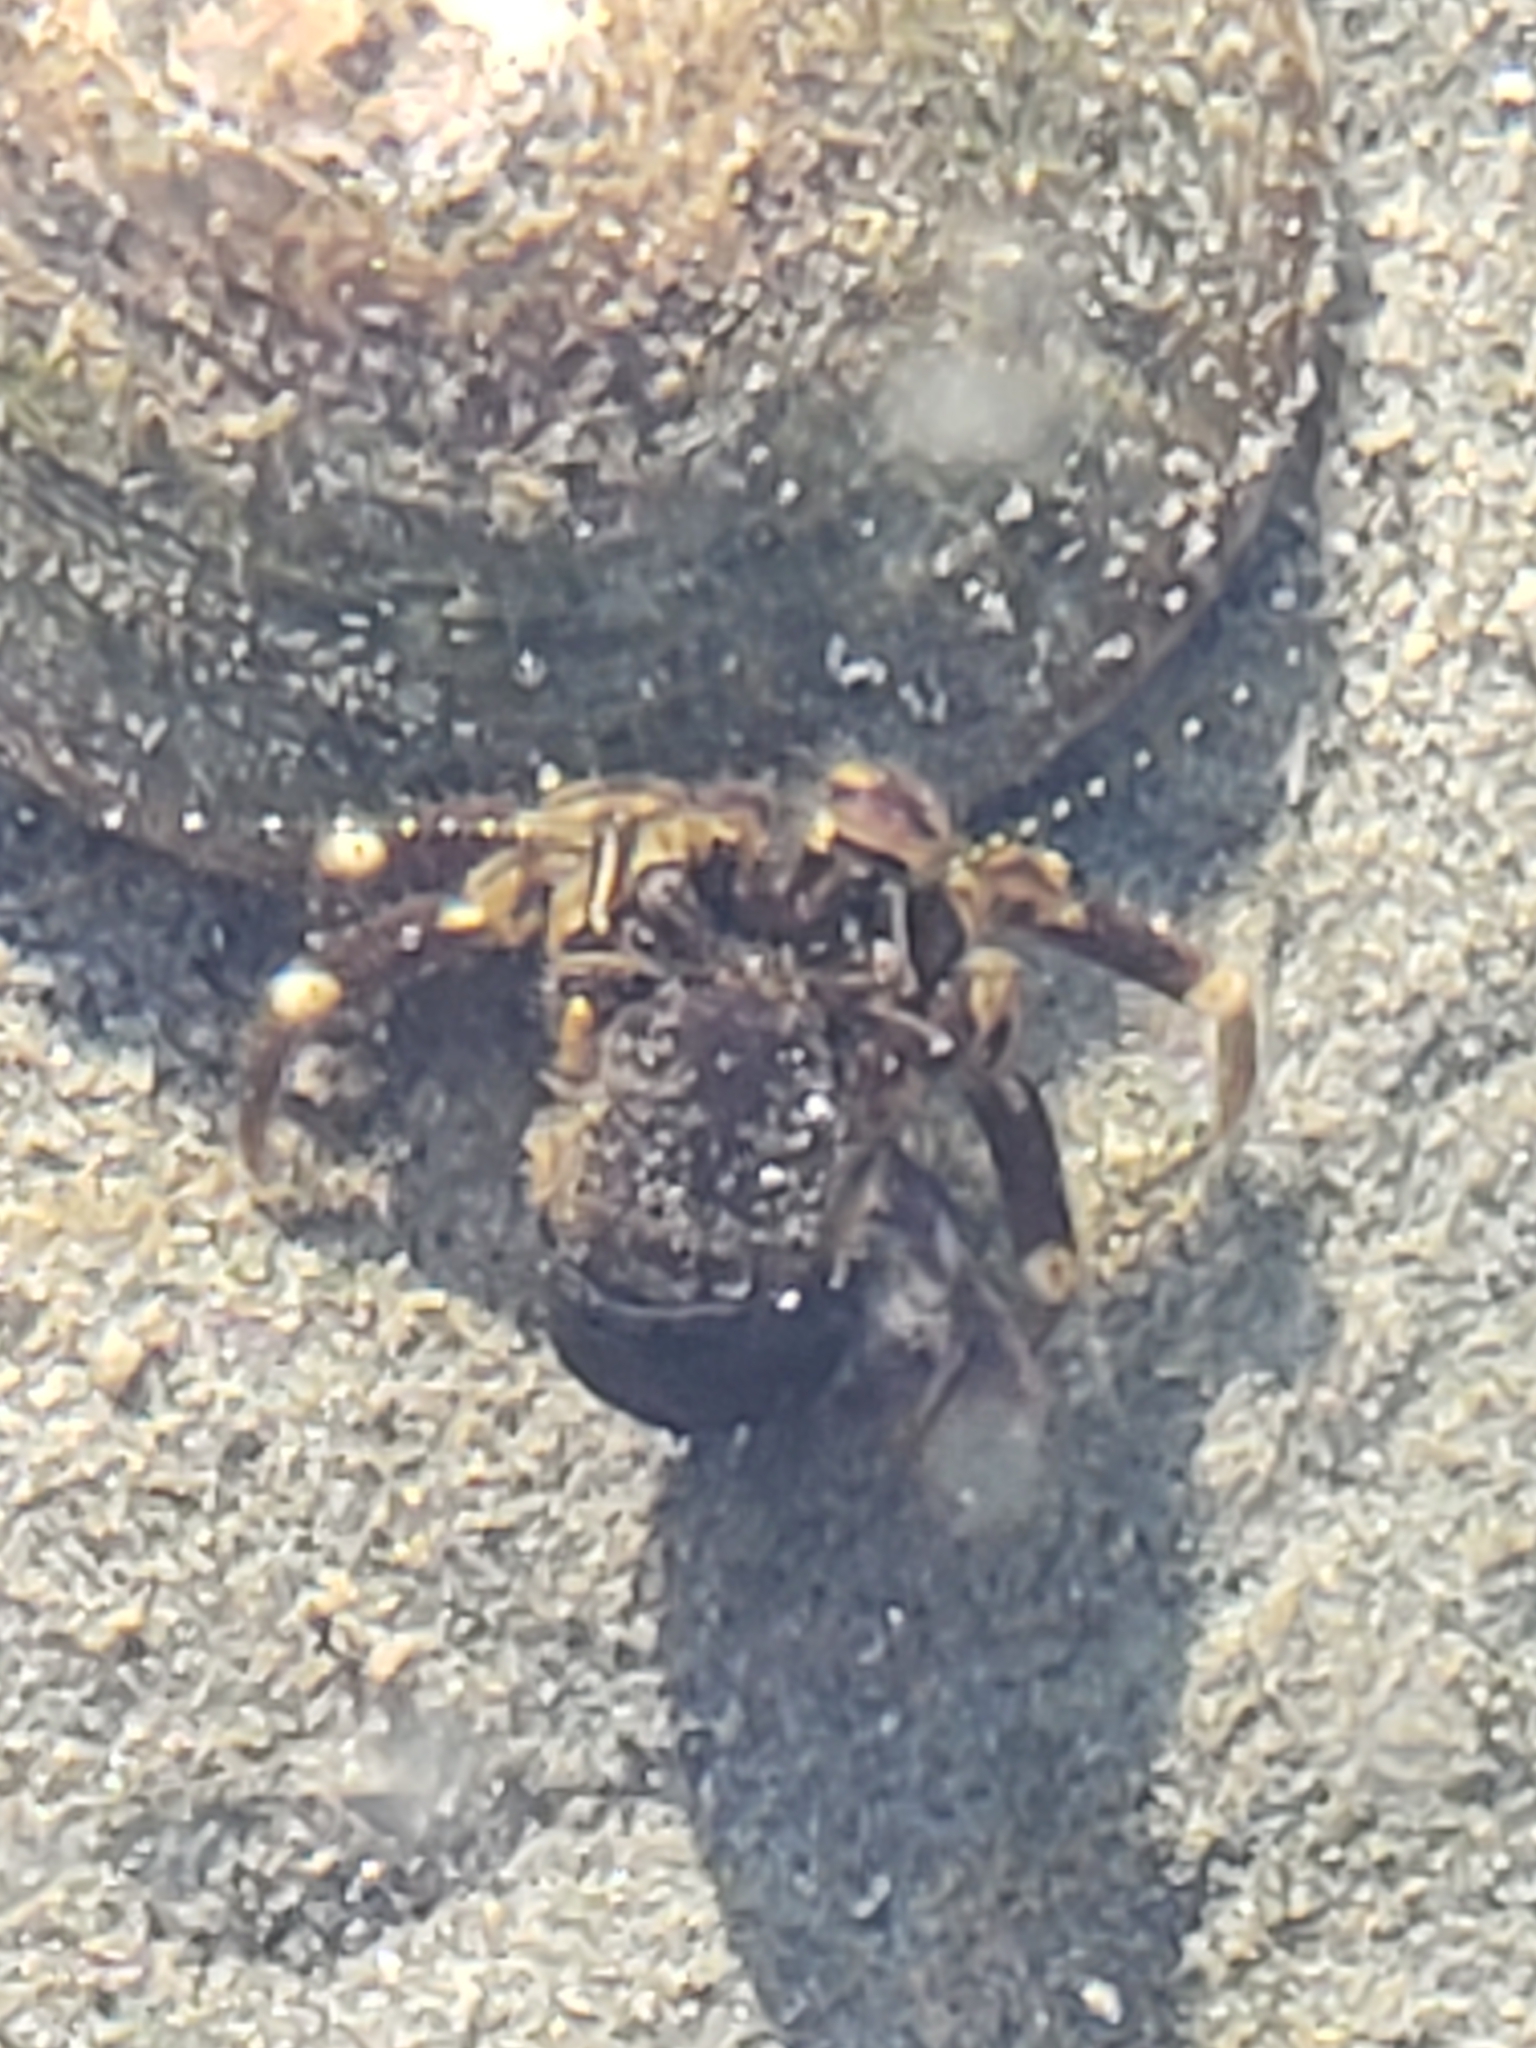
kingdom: Animalia
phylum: Arthropoda
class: Malacostraca
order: Decapoda
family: Paguridae
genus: Pagurus
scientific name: Pagurus hirsutiusculus
